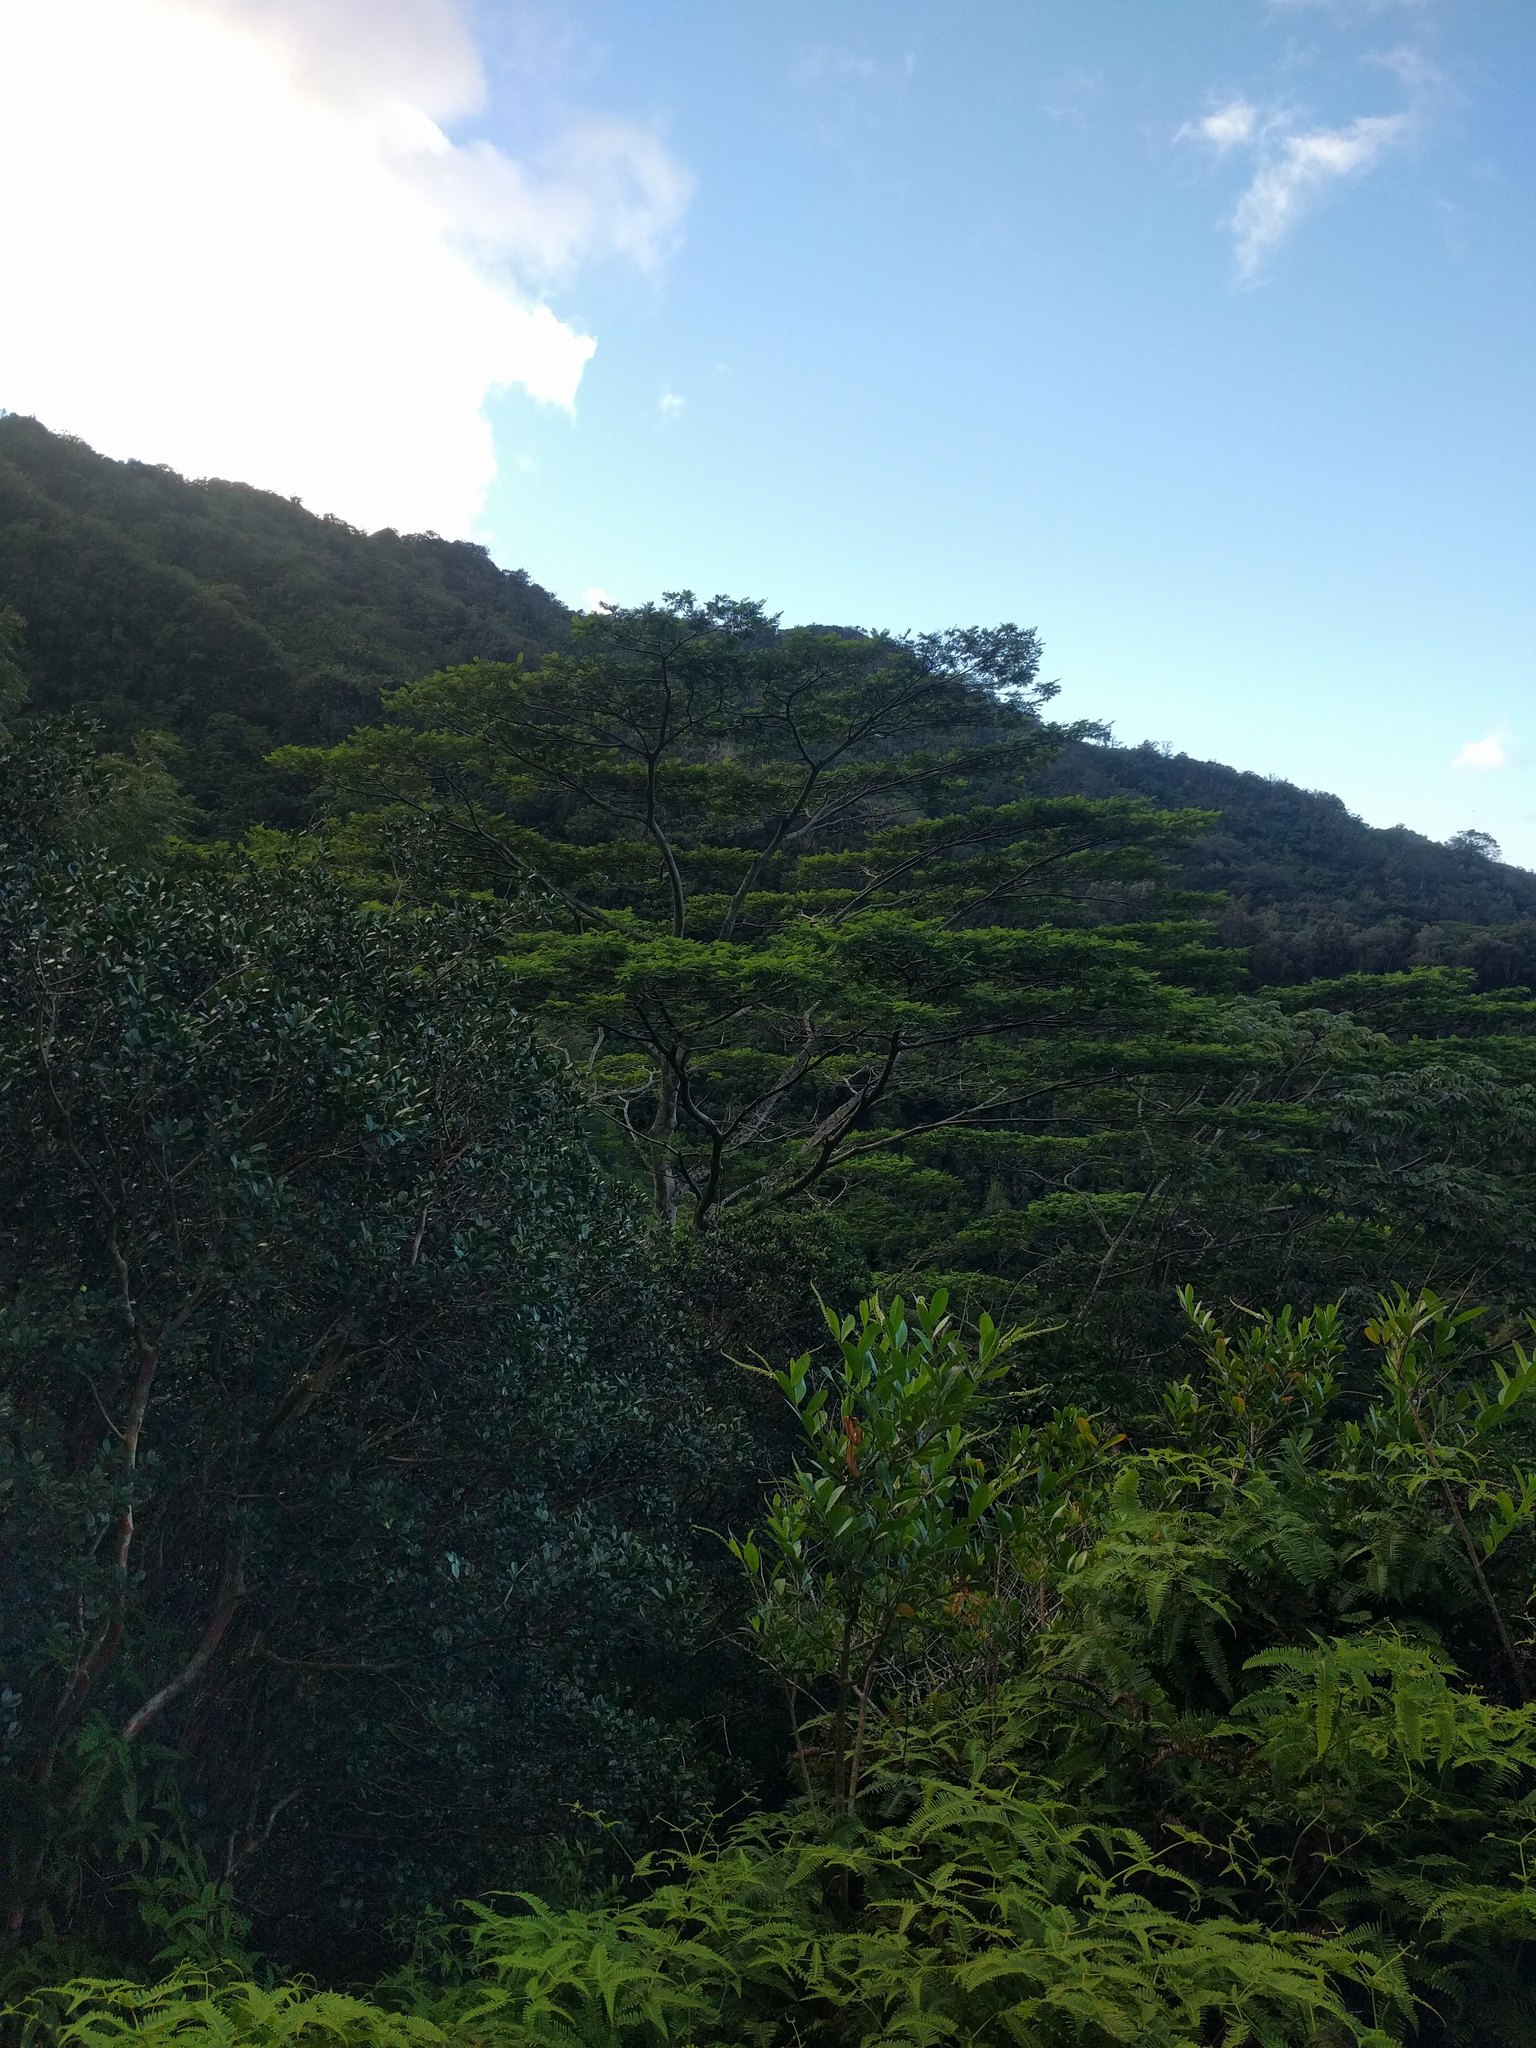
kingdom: Plantae
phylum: Tracheophyta
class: Magnoliopsida
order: Fabales
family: Fabaceae
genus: Falcataria
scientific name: Falcataria falcata
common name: Moluccan albizia
